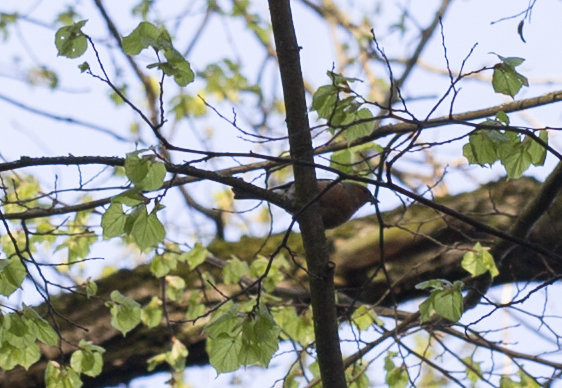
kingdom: Animalia
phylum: Chordata
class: Aves
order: Passeriformes
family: Fringillidae
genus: Fringilla
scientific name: Fringilla coelebs
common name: Common chaffinch
